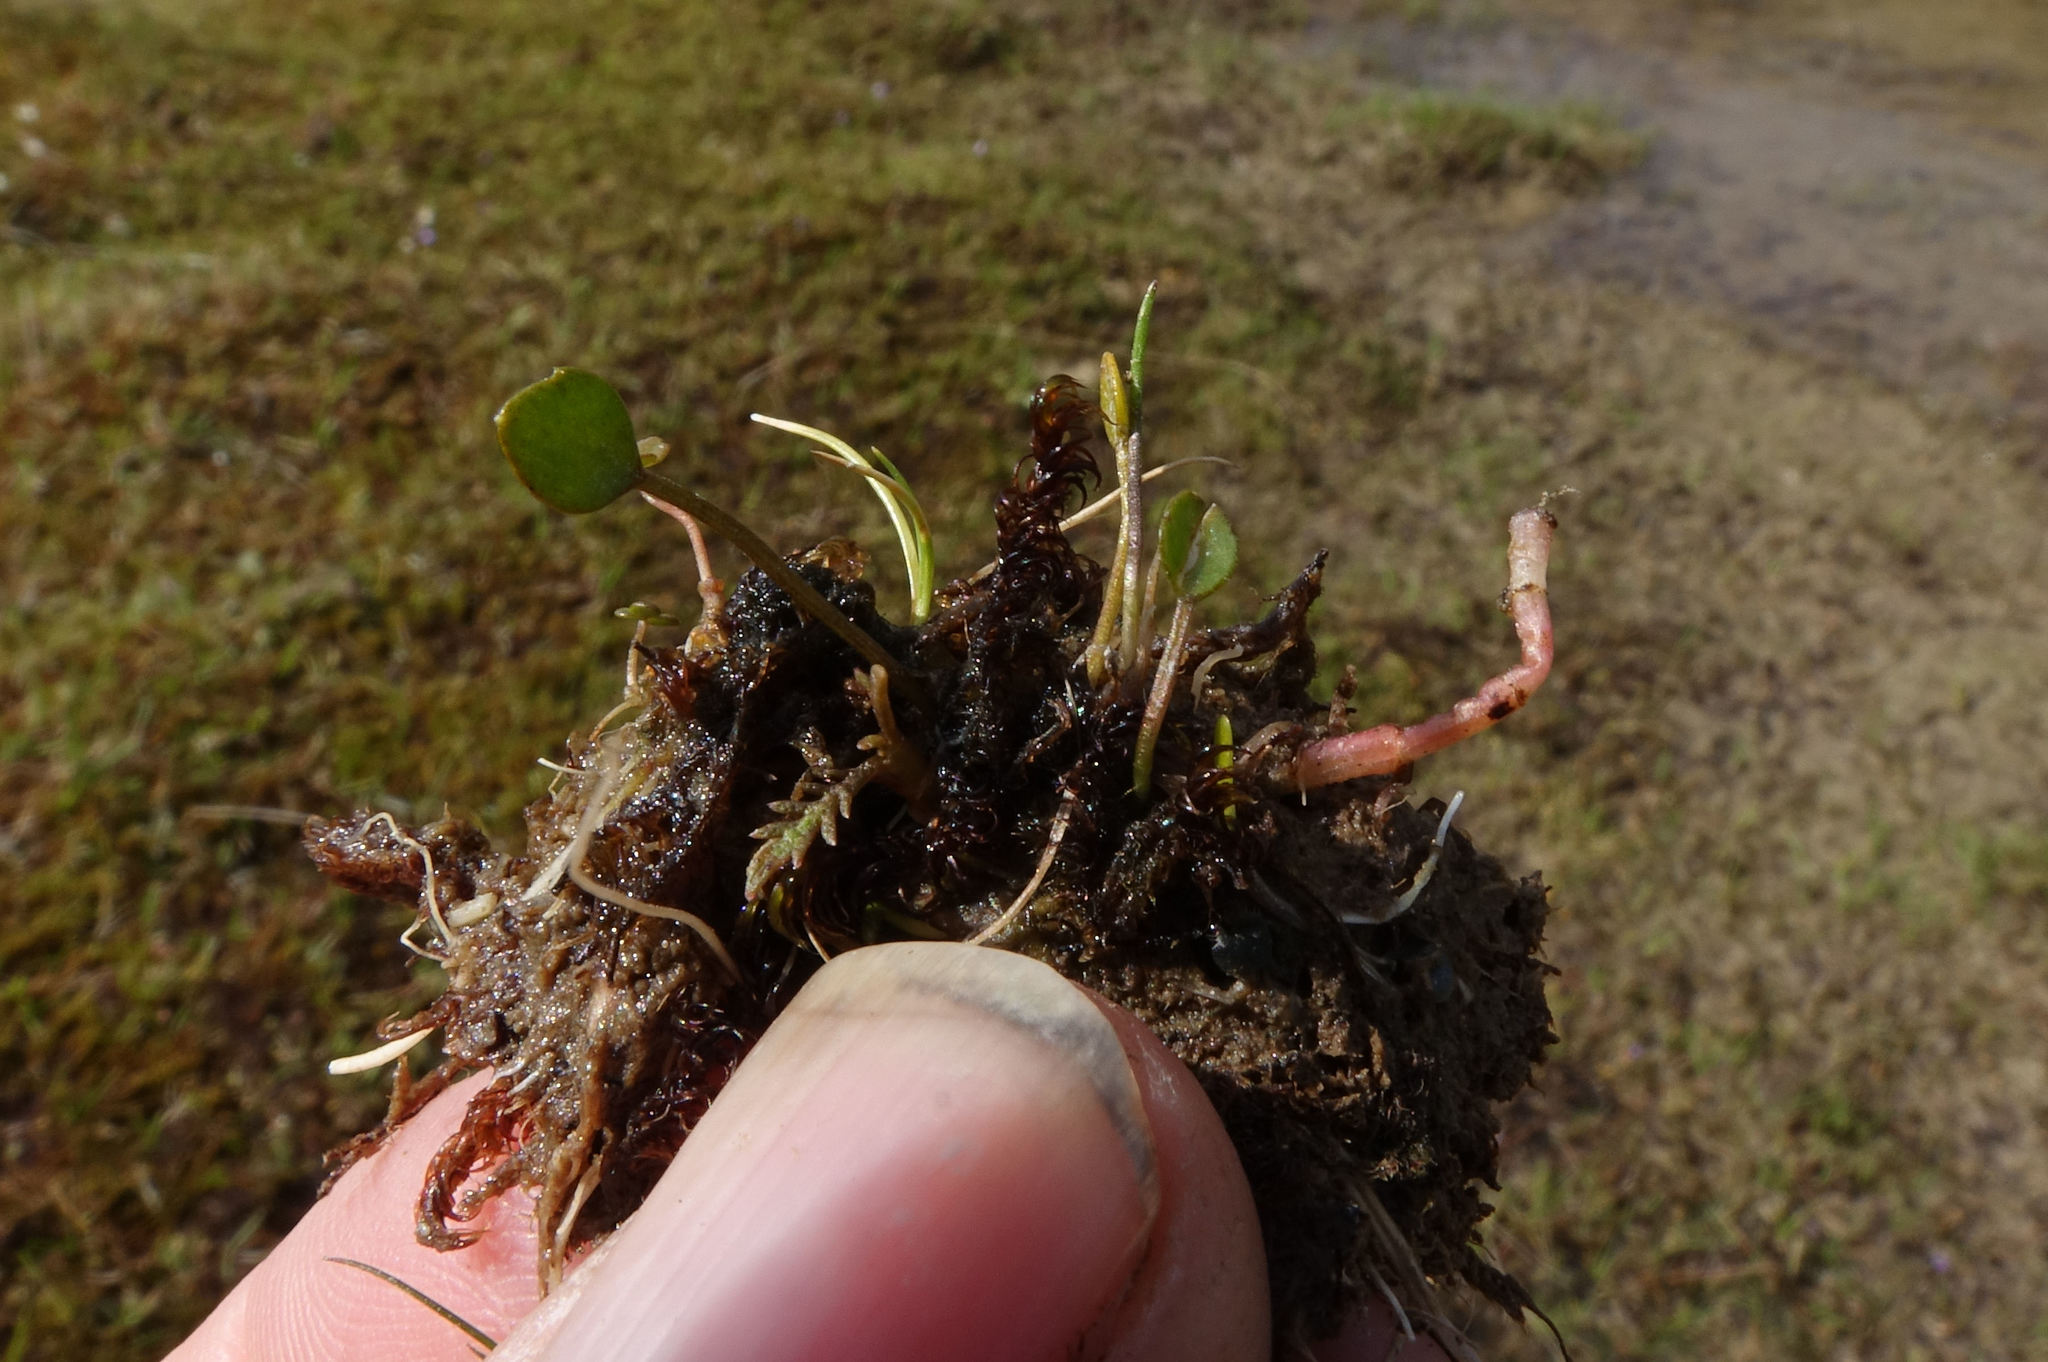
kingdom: Plantae
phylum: Tracheophyta
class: Magnoliopsida
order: Apiales
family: Apiaceae
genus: Azorella
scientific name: Azorella cockaynei
